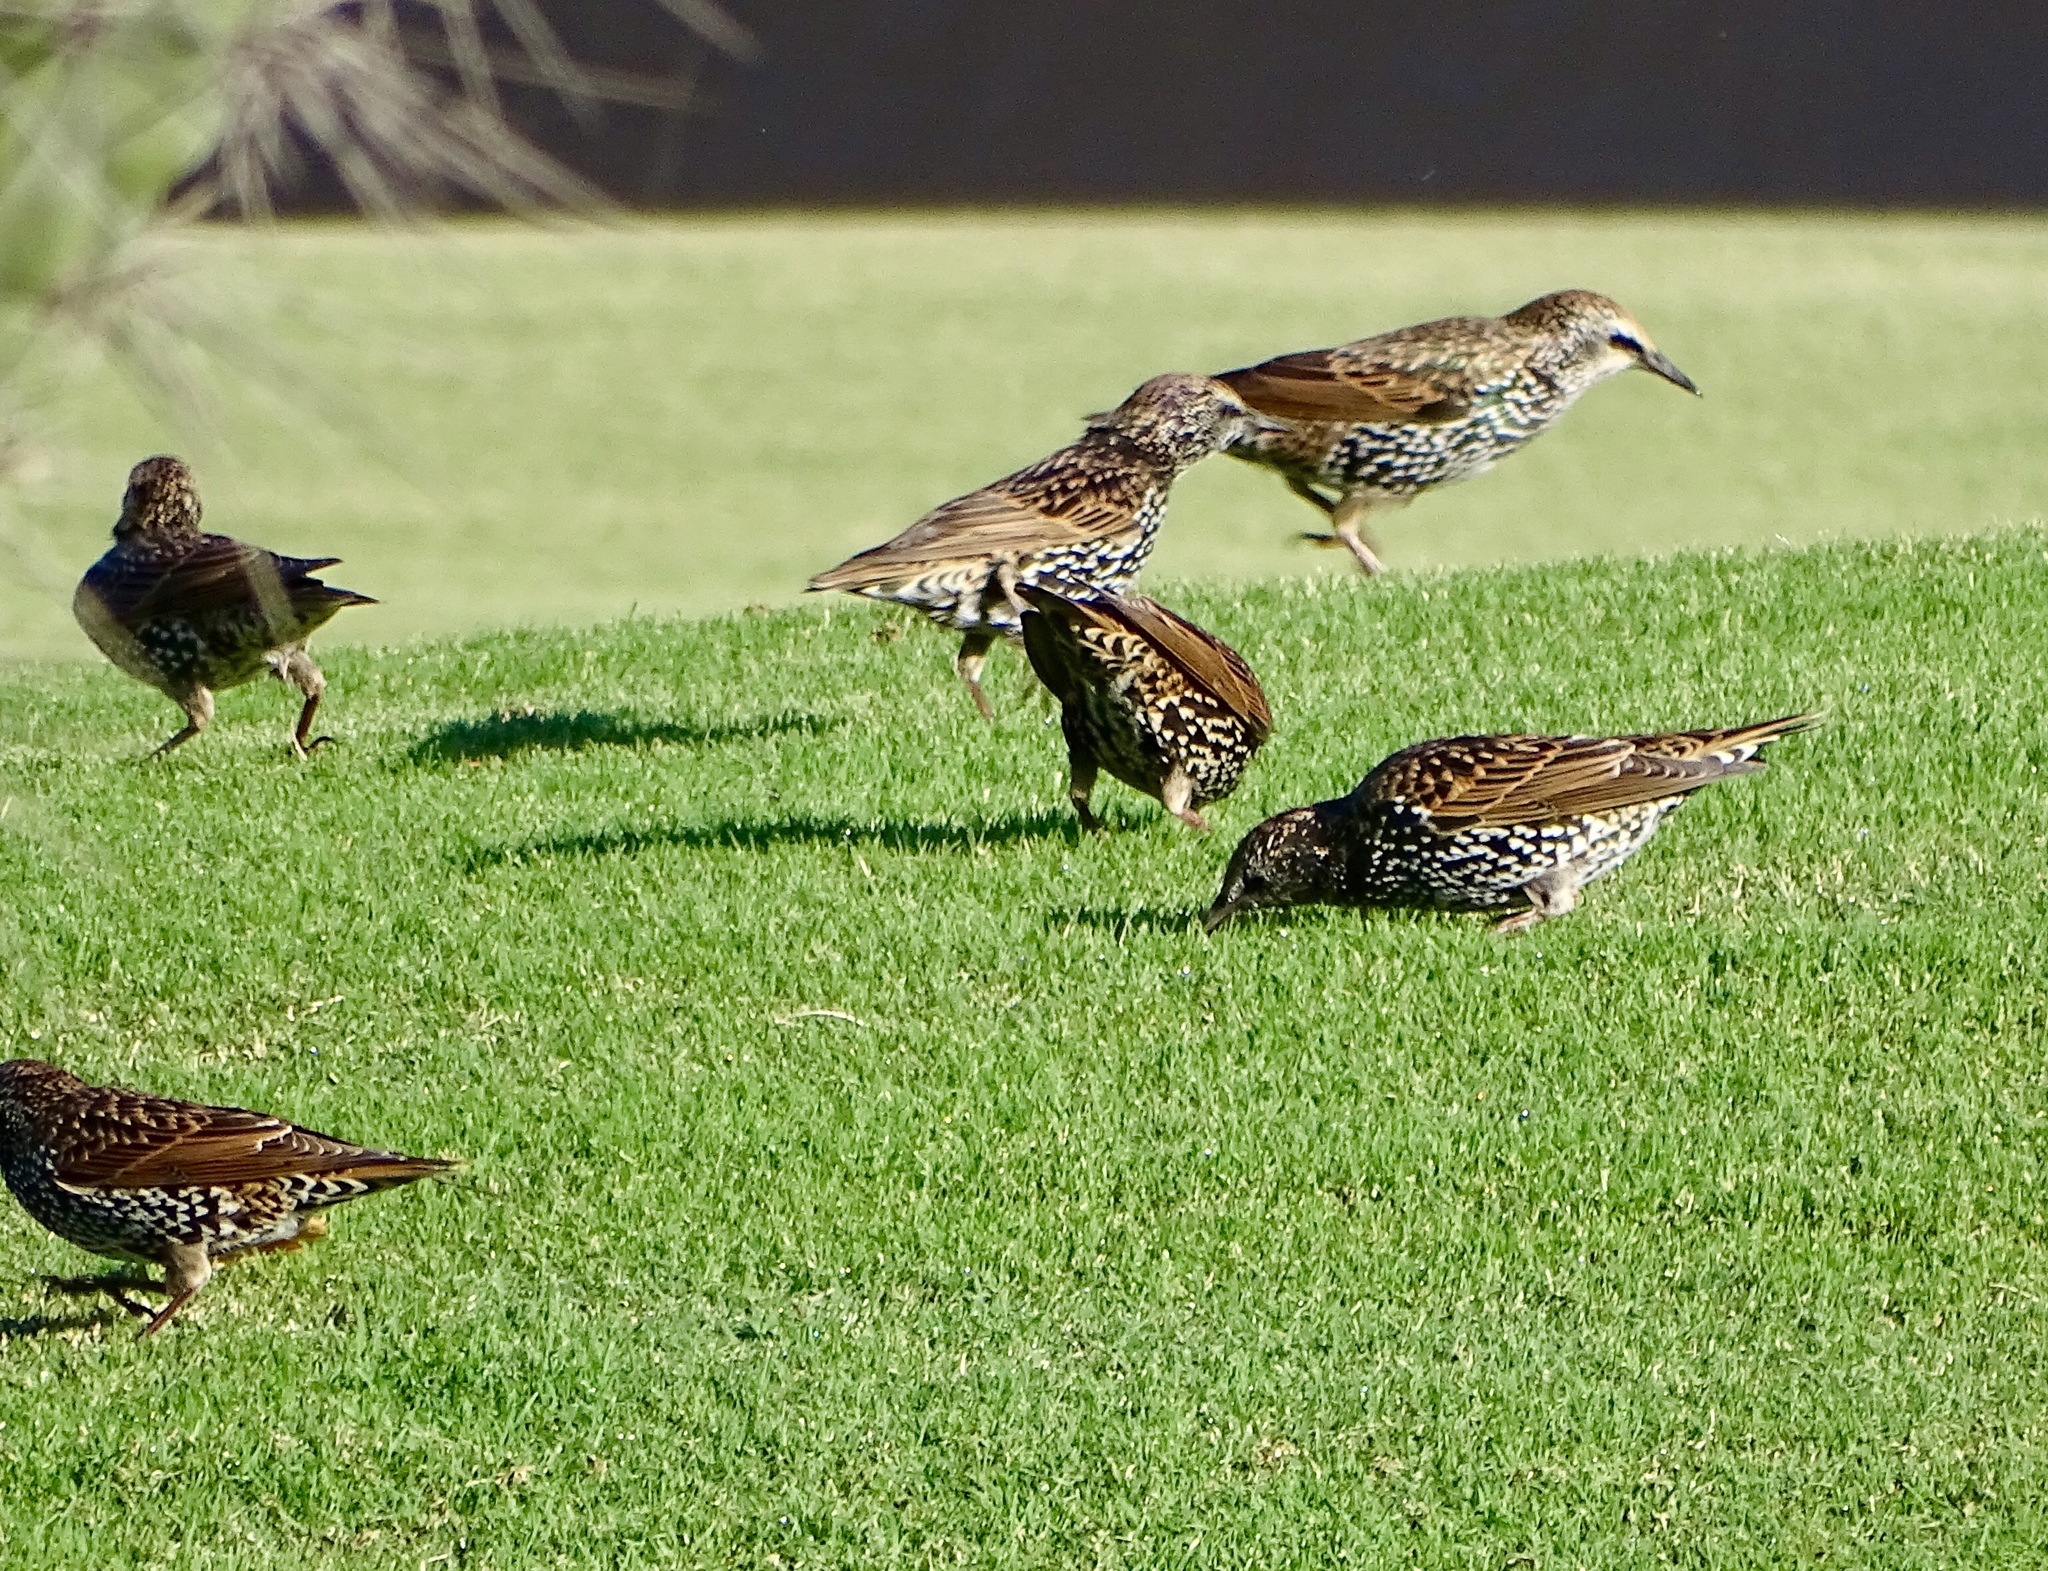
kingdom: Animalia
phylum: Chordata
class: Aves
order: Passeriformes
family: Sturnidae
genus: Sturnus
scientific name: Sturnus vulgaris
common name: Common starling
